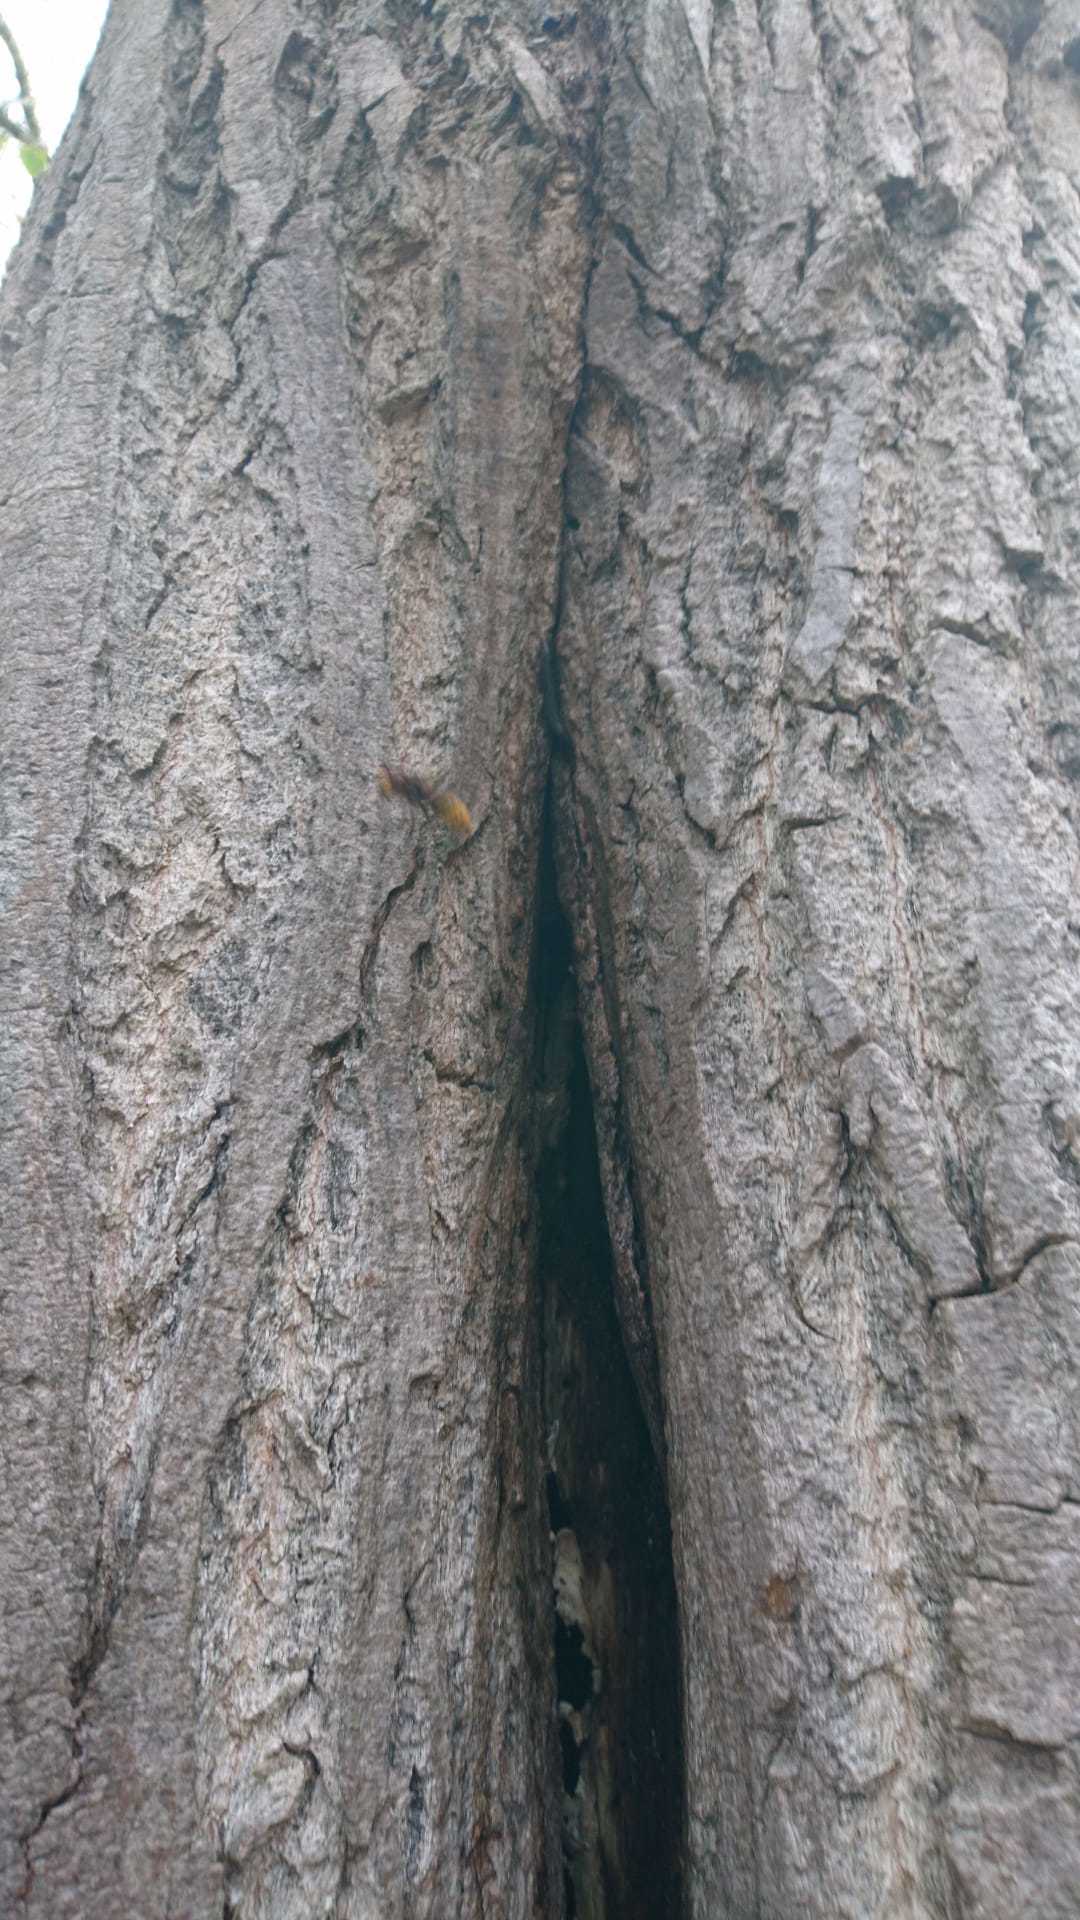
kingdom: Animalia
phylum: Arthropoda
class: Insecta
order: Hymenoptera
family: Vespidae
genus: Vespa
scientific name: Vespa crabro
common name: Hornet
